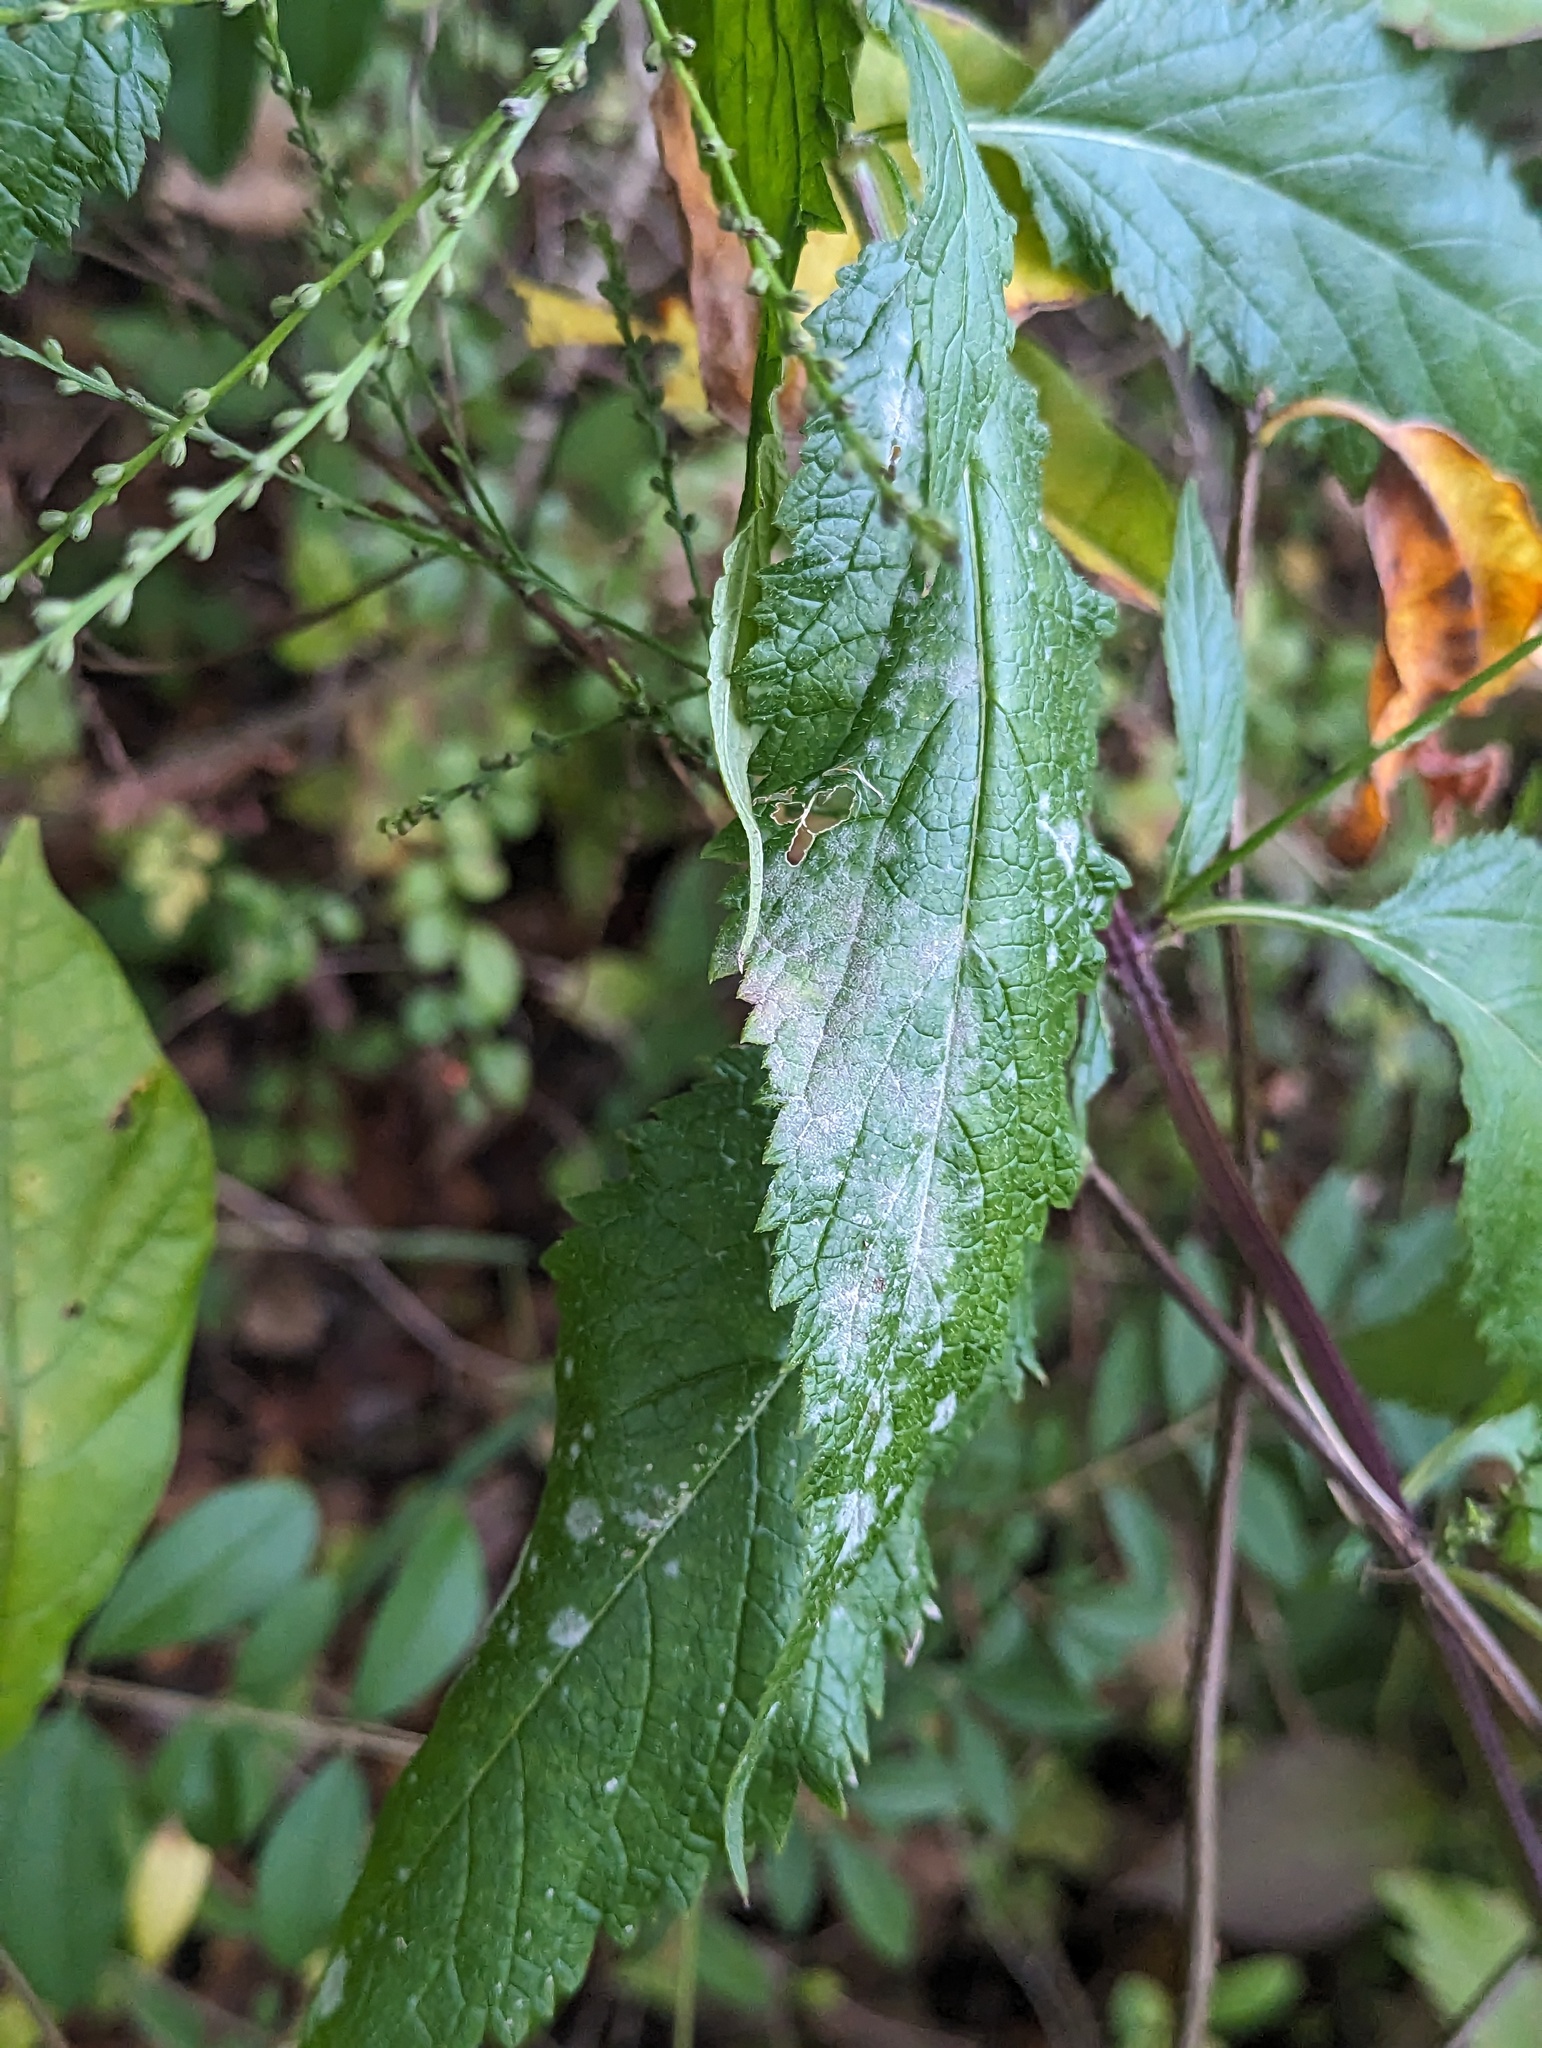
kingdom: Plantae
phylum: Tracheophyta
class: Magnoliopsida
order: Lamiales
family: Verbenaceae
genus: Verbena
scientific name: Verbena urticifolia
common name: Nettle-leaved vervain
